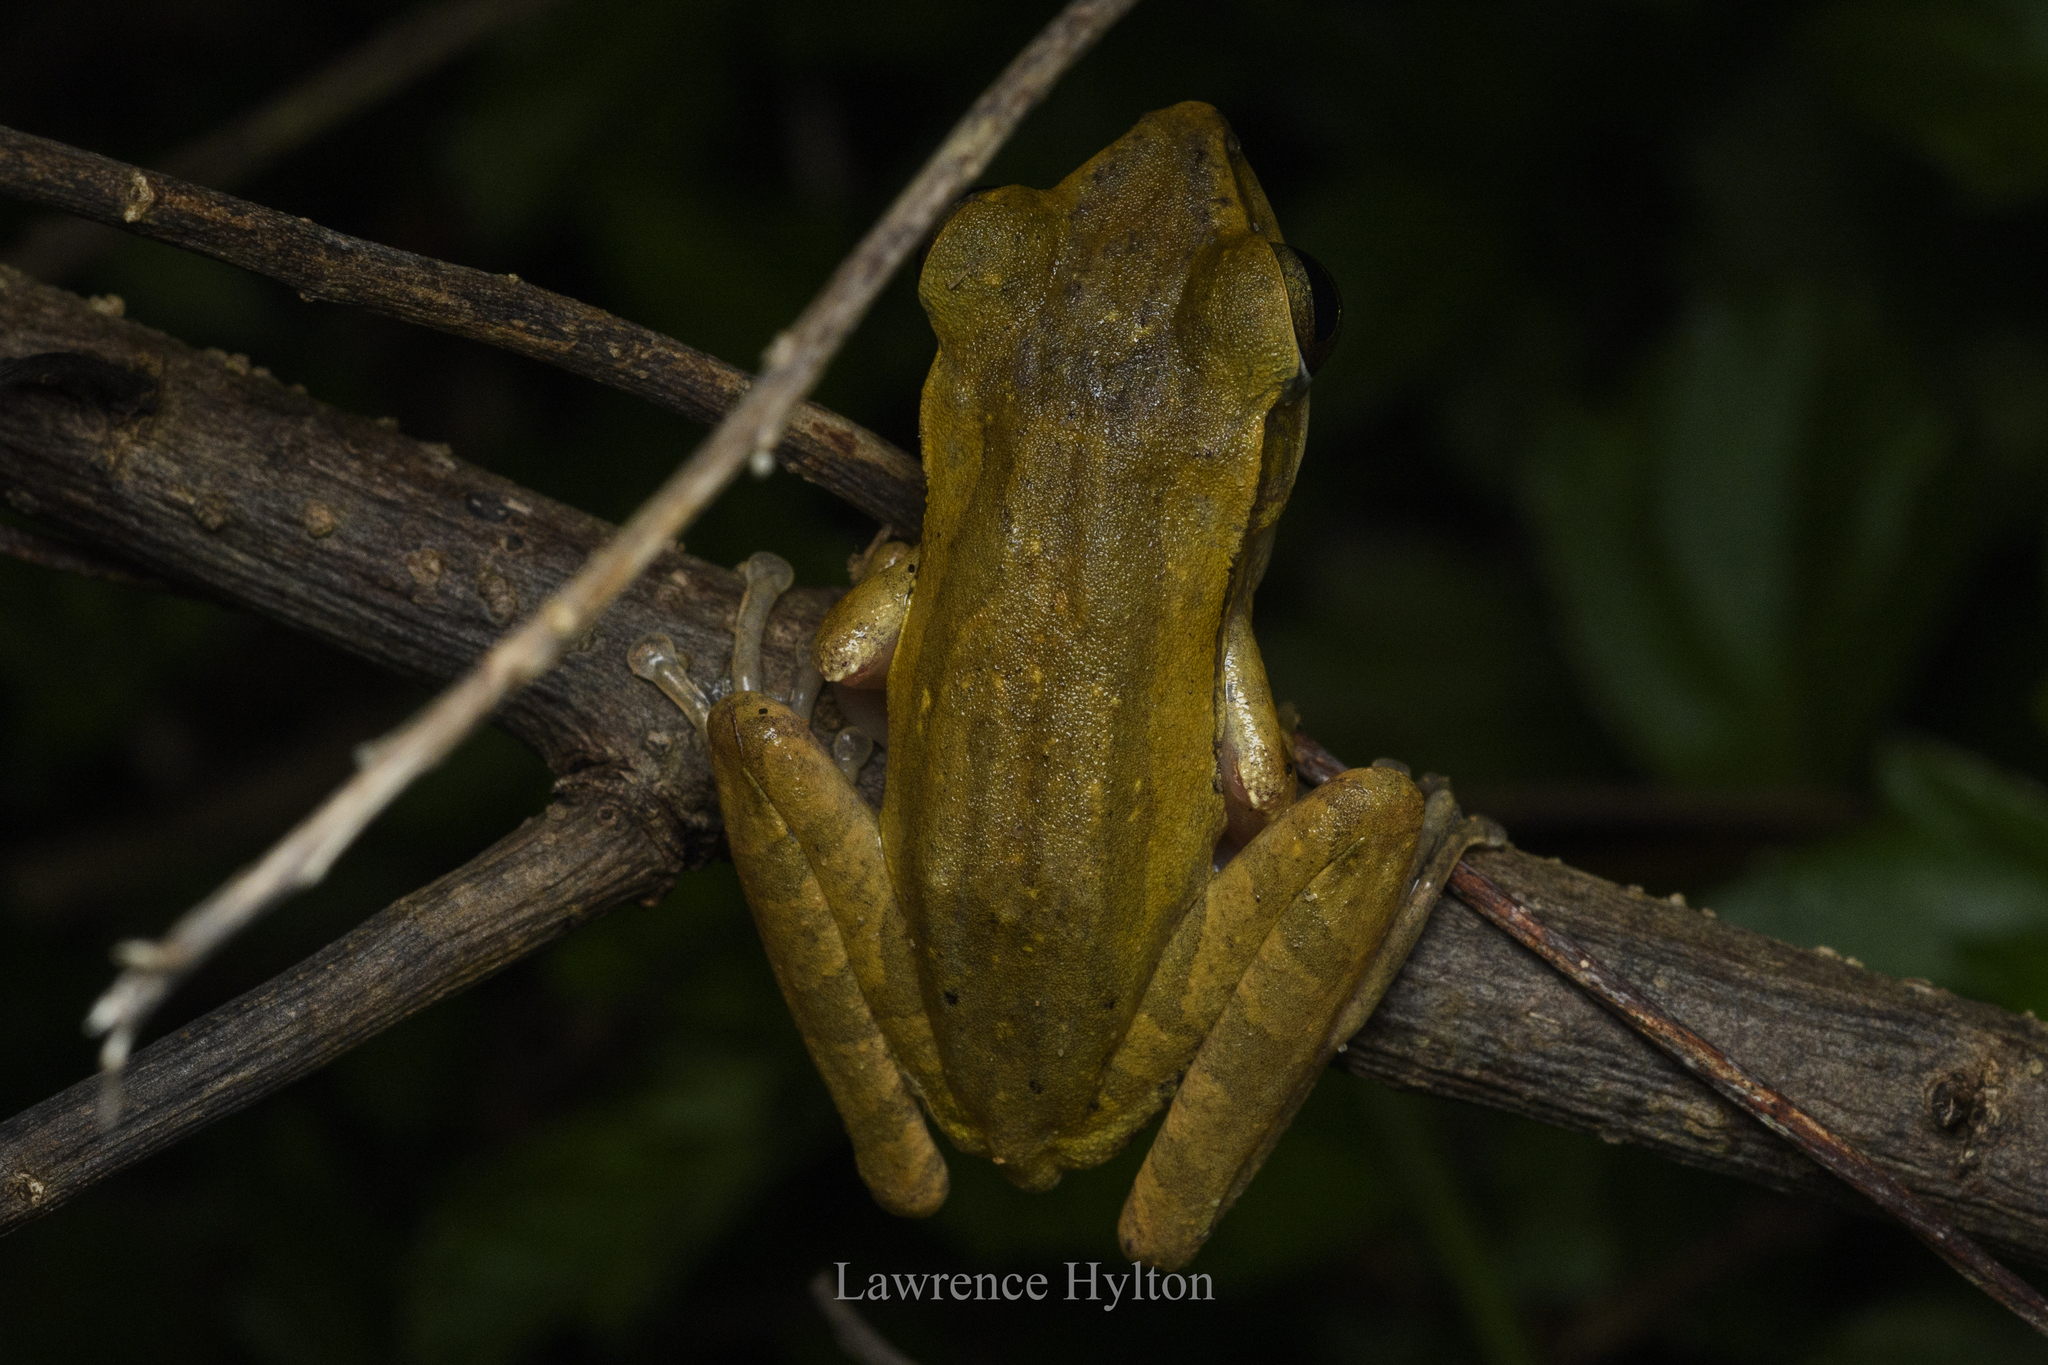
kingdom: Animalia
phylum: Chordata
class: Amphibia
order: Anura
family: Rhacophoridae
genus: Polypedates
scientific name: Polypedates leucomystax
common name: Common tree frog/four-lined tree frog
